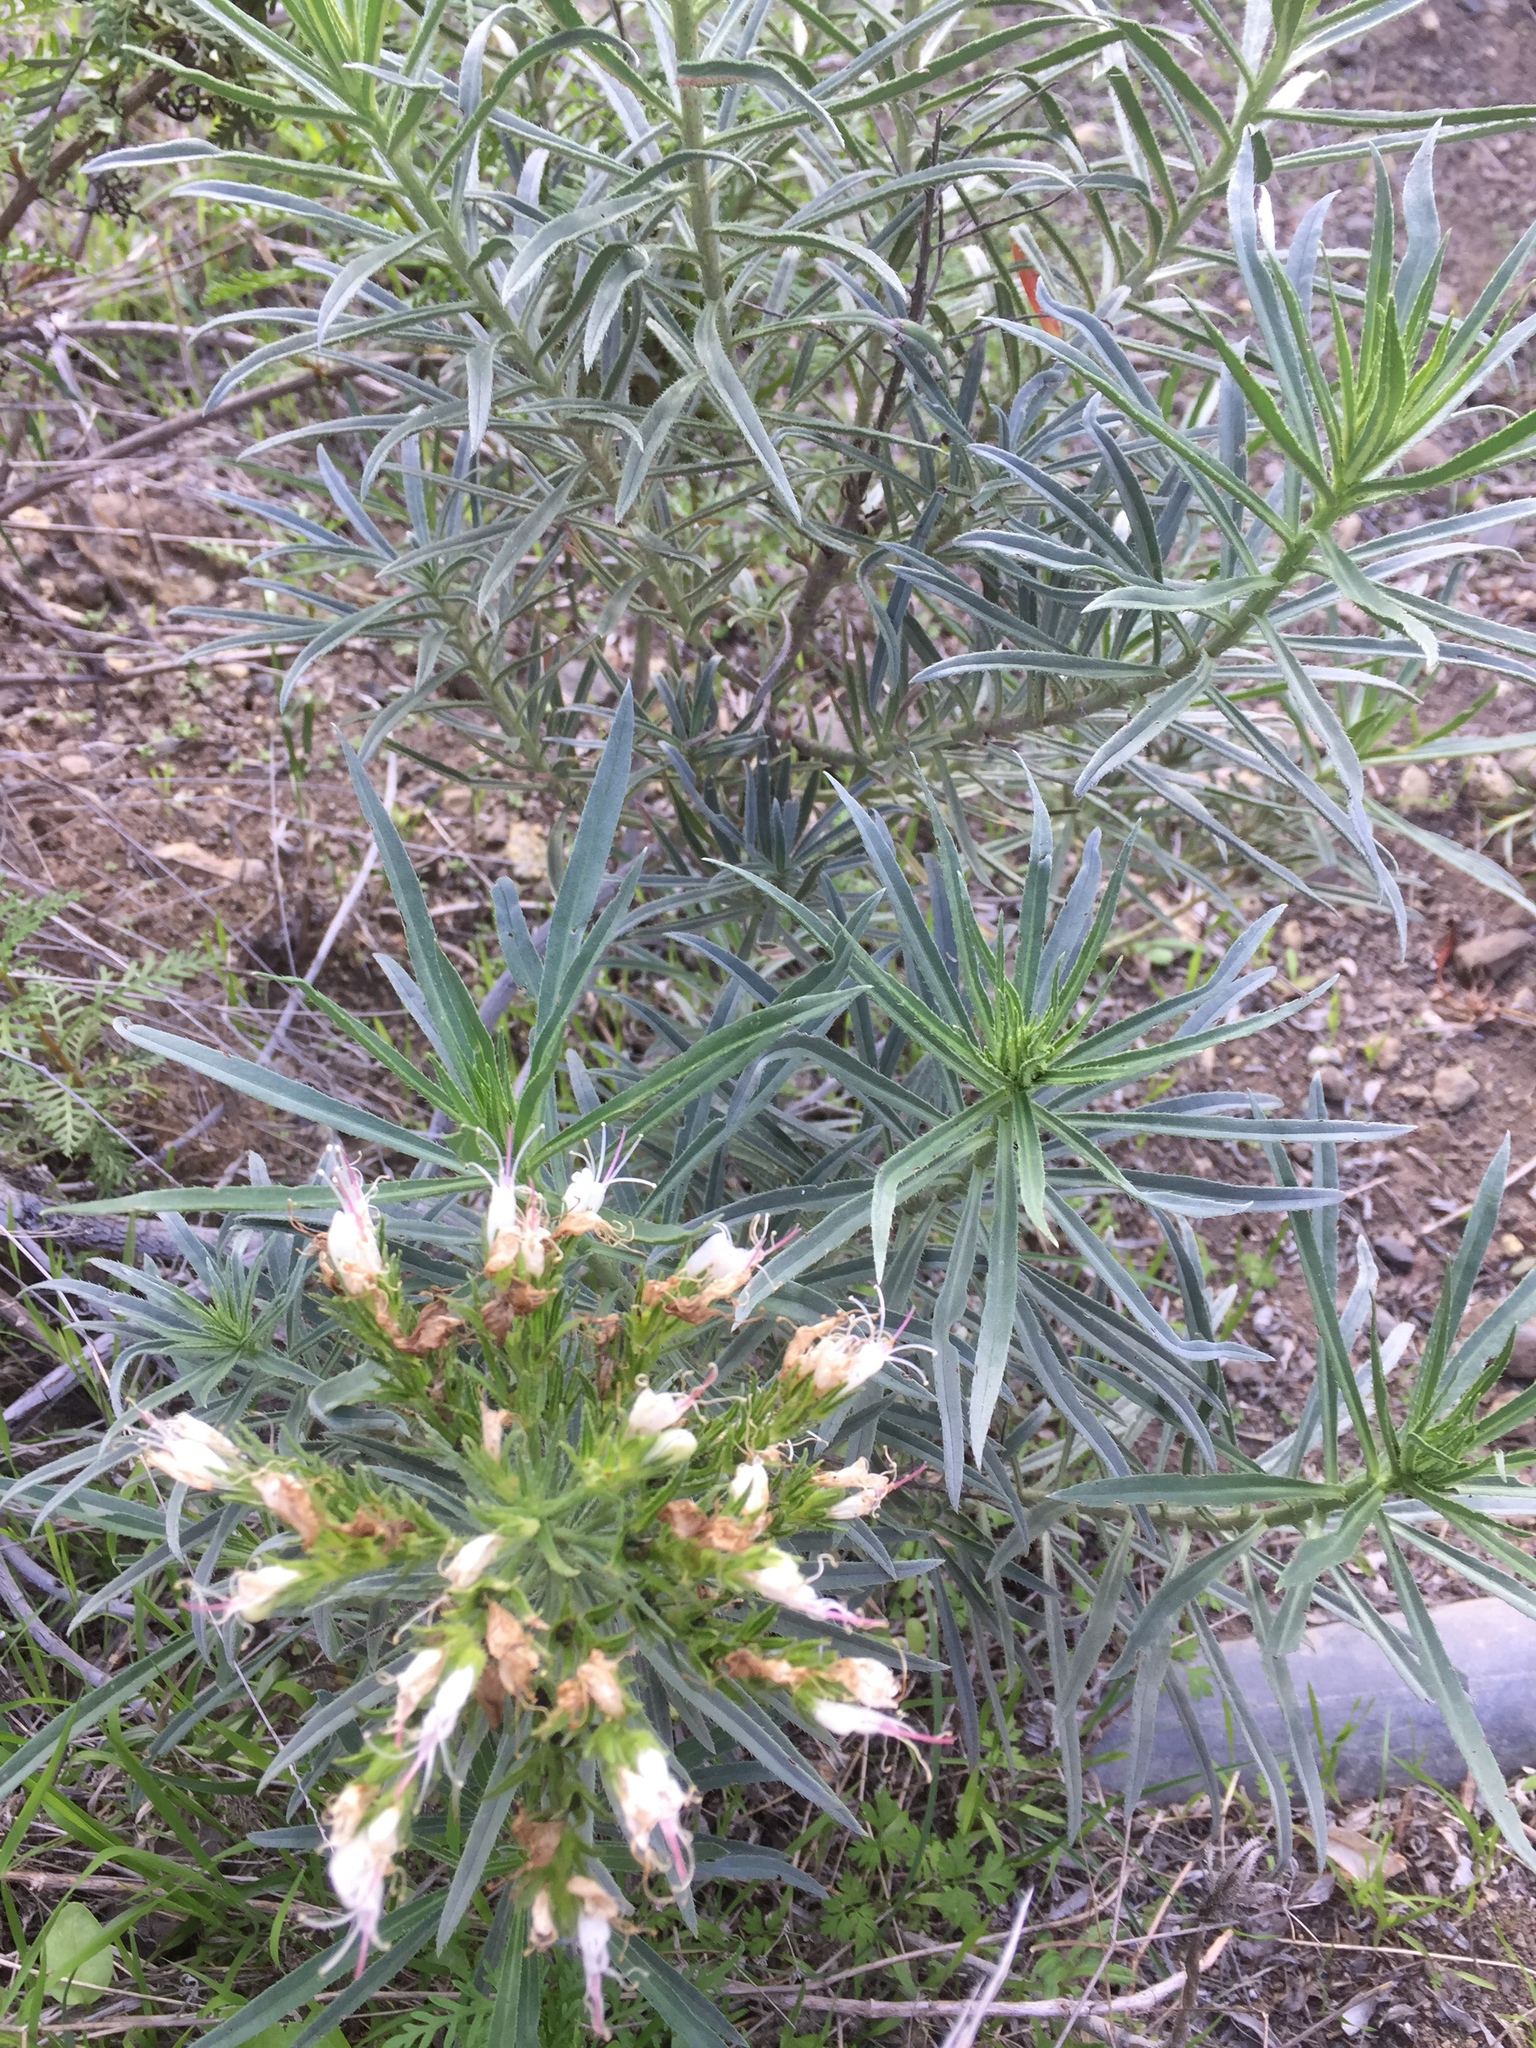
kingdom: Plantae
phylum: Tracheophyta
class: Magnoliopsida
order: Boraginales
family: Boraginaceae
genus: Echium
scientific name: Echium brevirame
